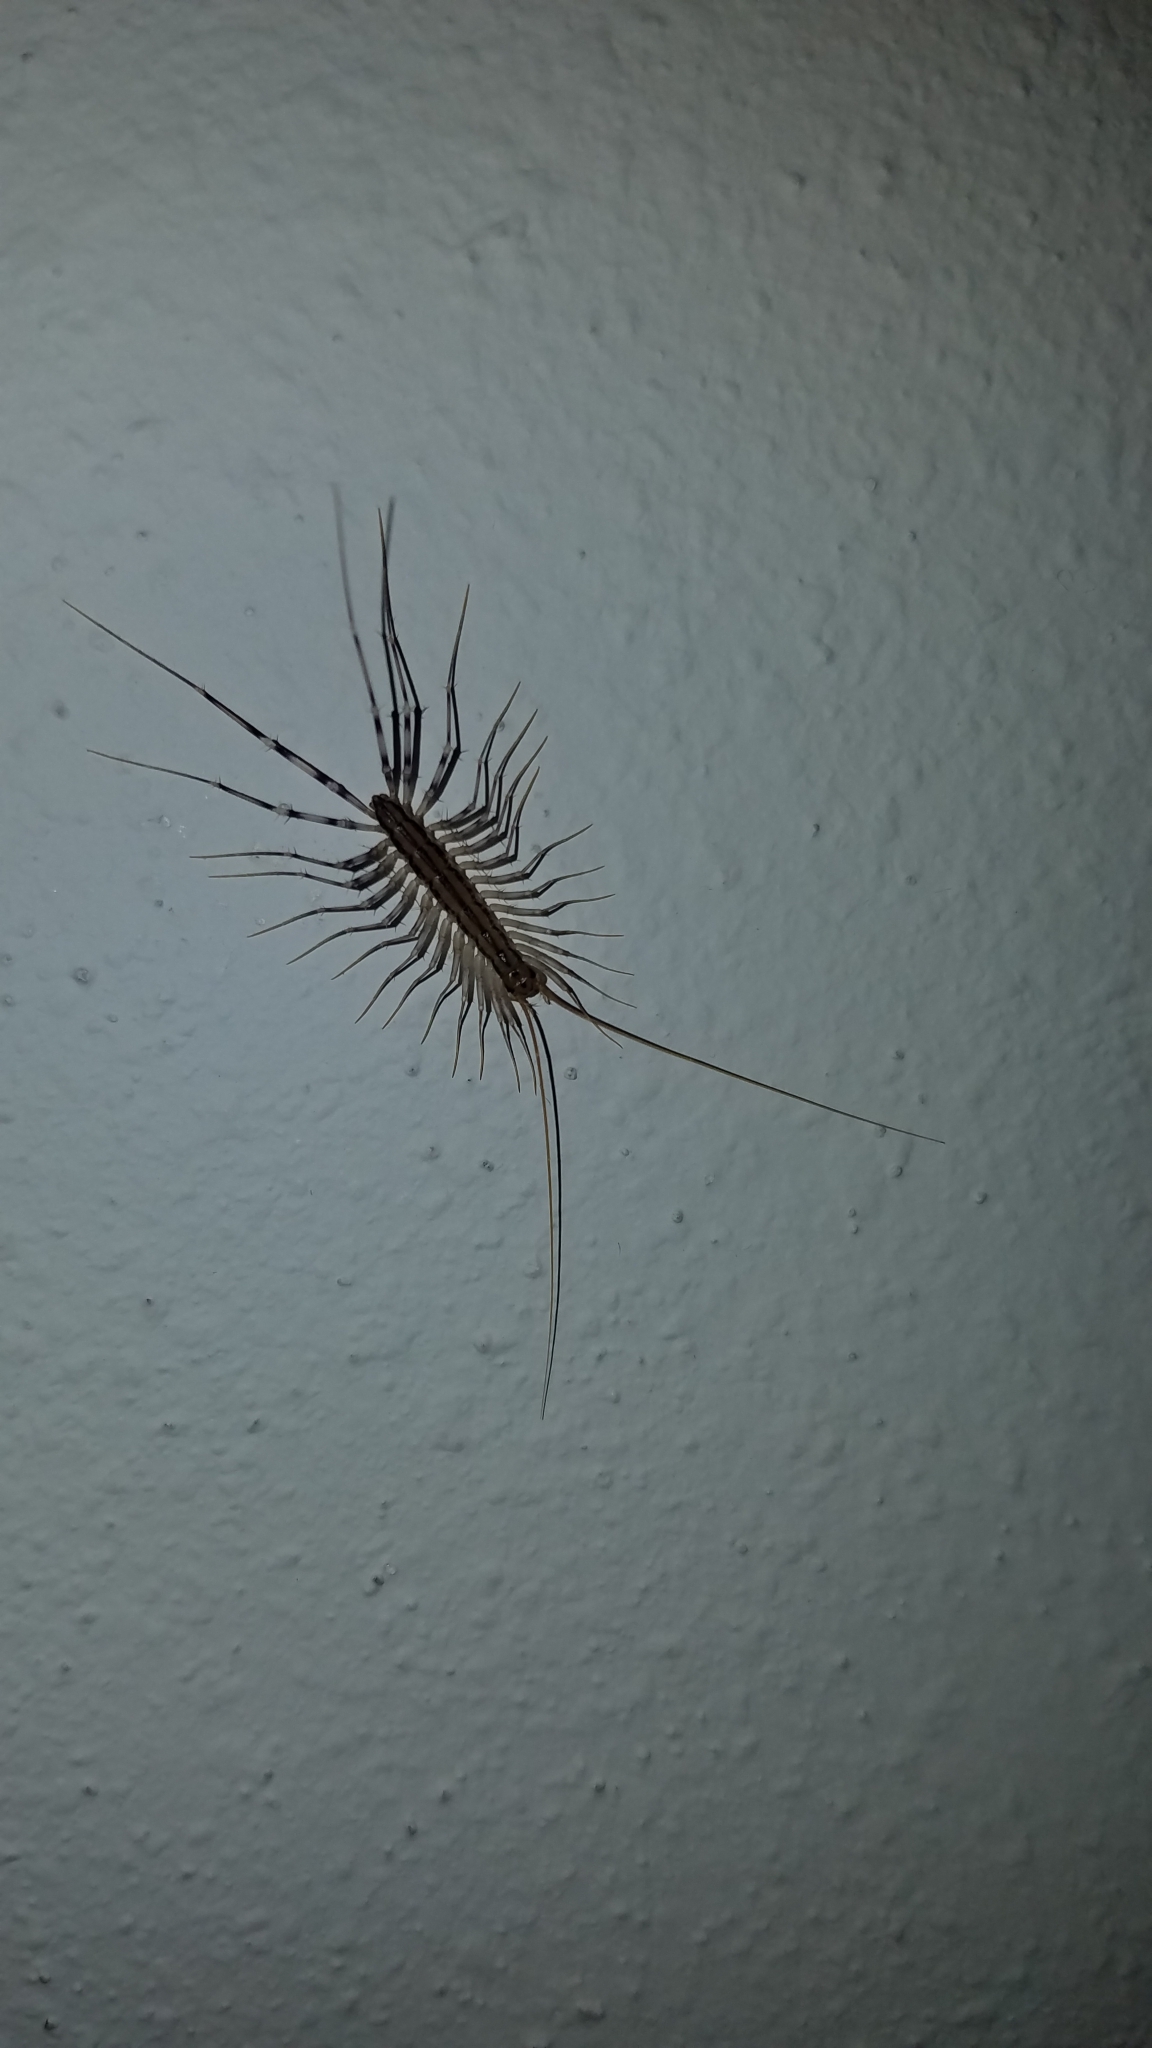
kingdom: Animalia
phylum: Arthropoda
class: Chilopoda
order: Scutigeromorpha
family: Scutigeridae
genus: Scutigera
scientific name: Scutigera coleoptrata
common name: House centipede
